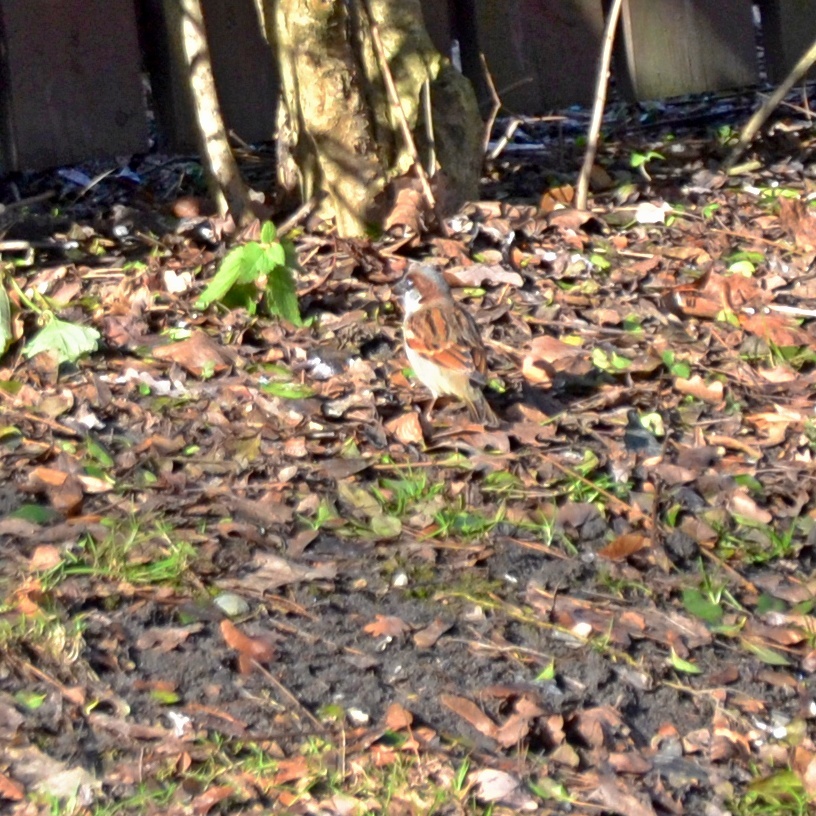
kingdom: Animalia
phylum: Chordata
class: Aves
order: Passeriformes
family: Passeridae
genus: Passer
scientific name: Passer domesticus
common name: House sparrow
